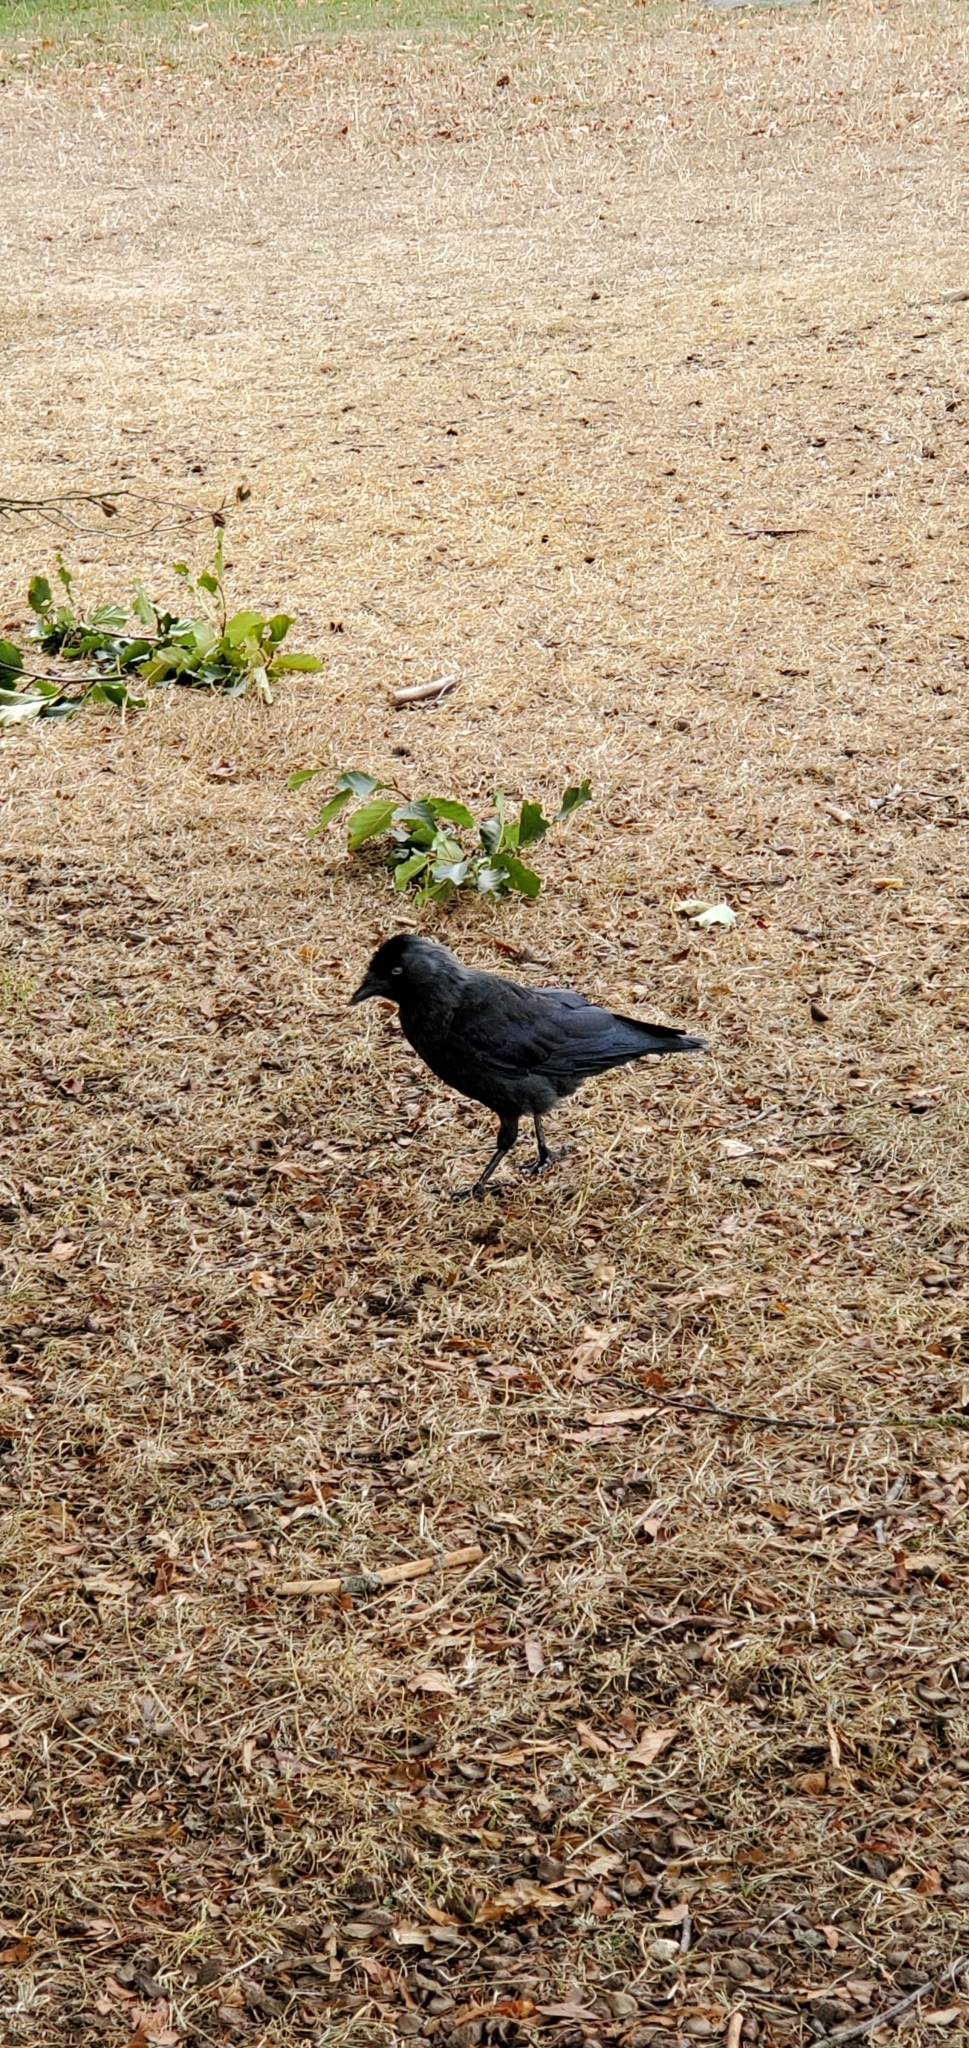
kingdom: Animalia
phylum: Chordata
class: Aves
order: Passeriformes
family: Corvidae
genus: Coloeus
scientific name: Coloeus monedula
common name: Western jackdaw
